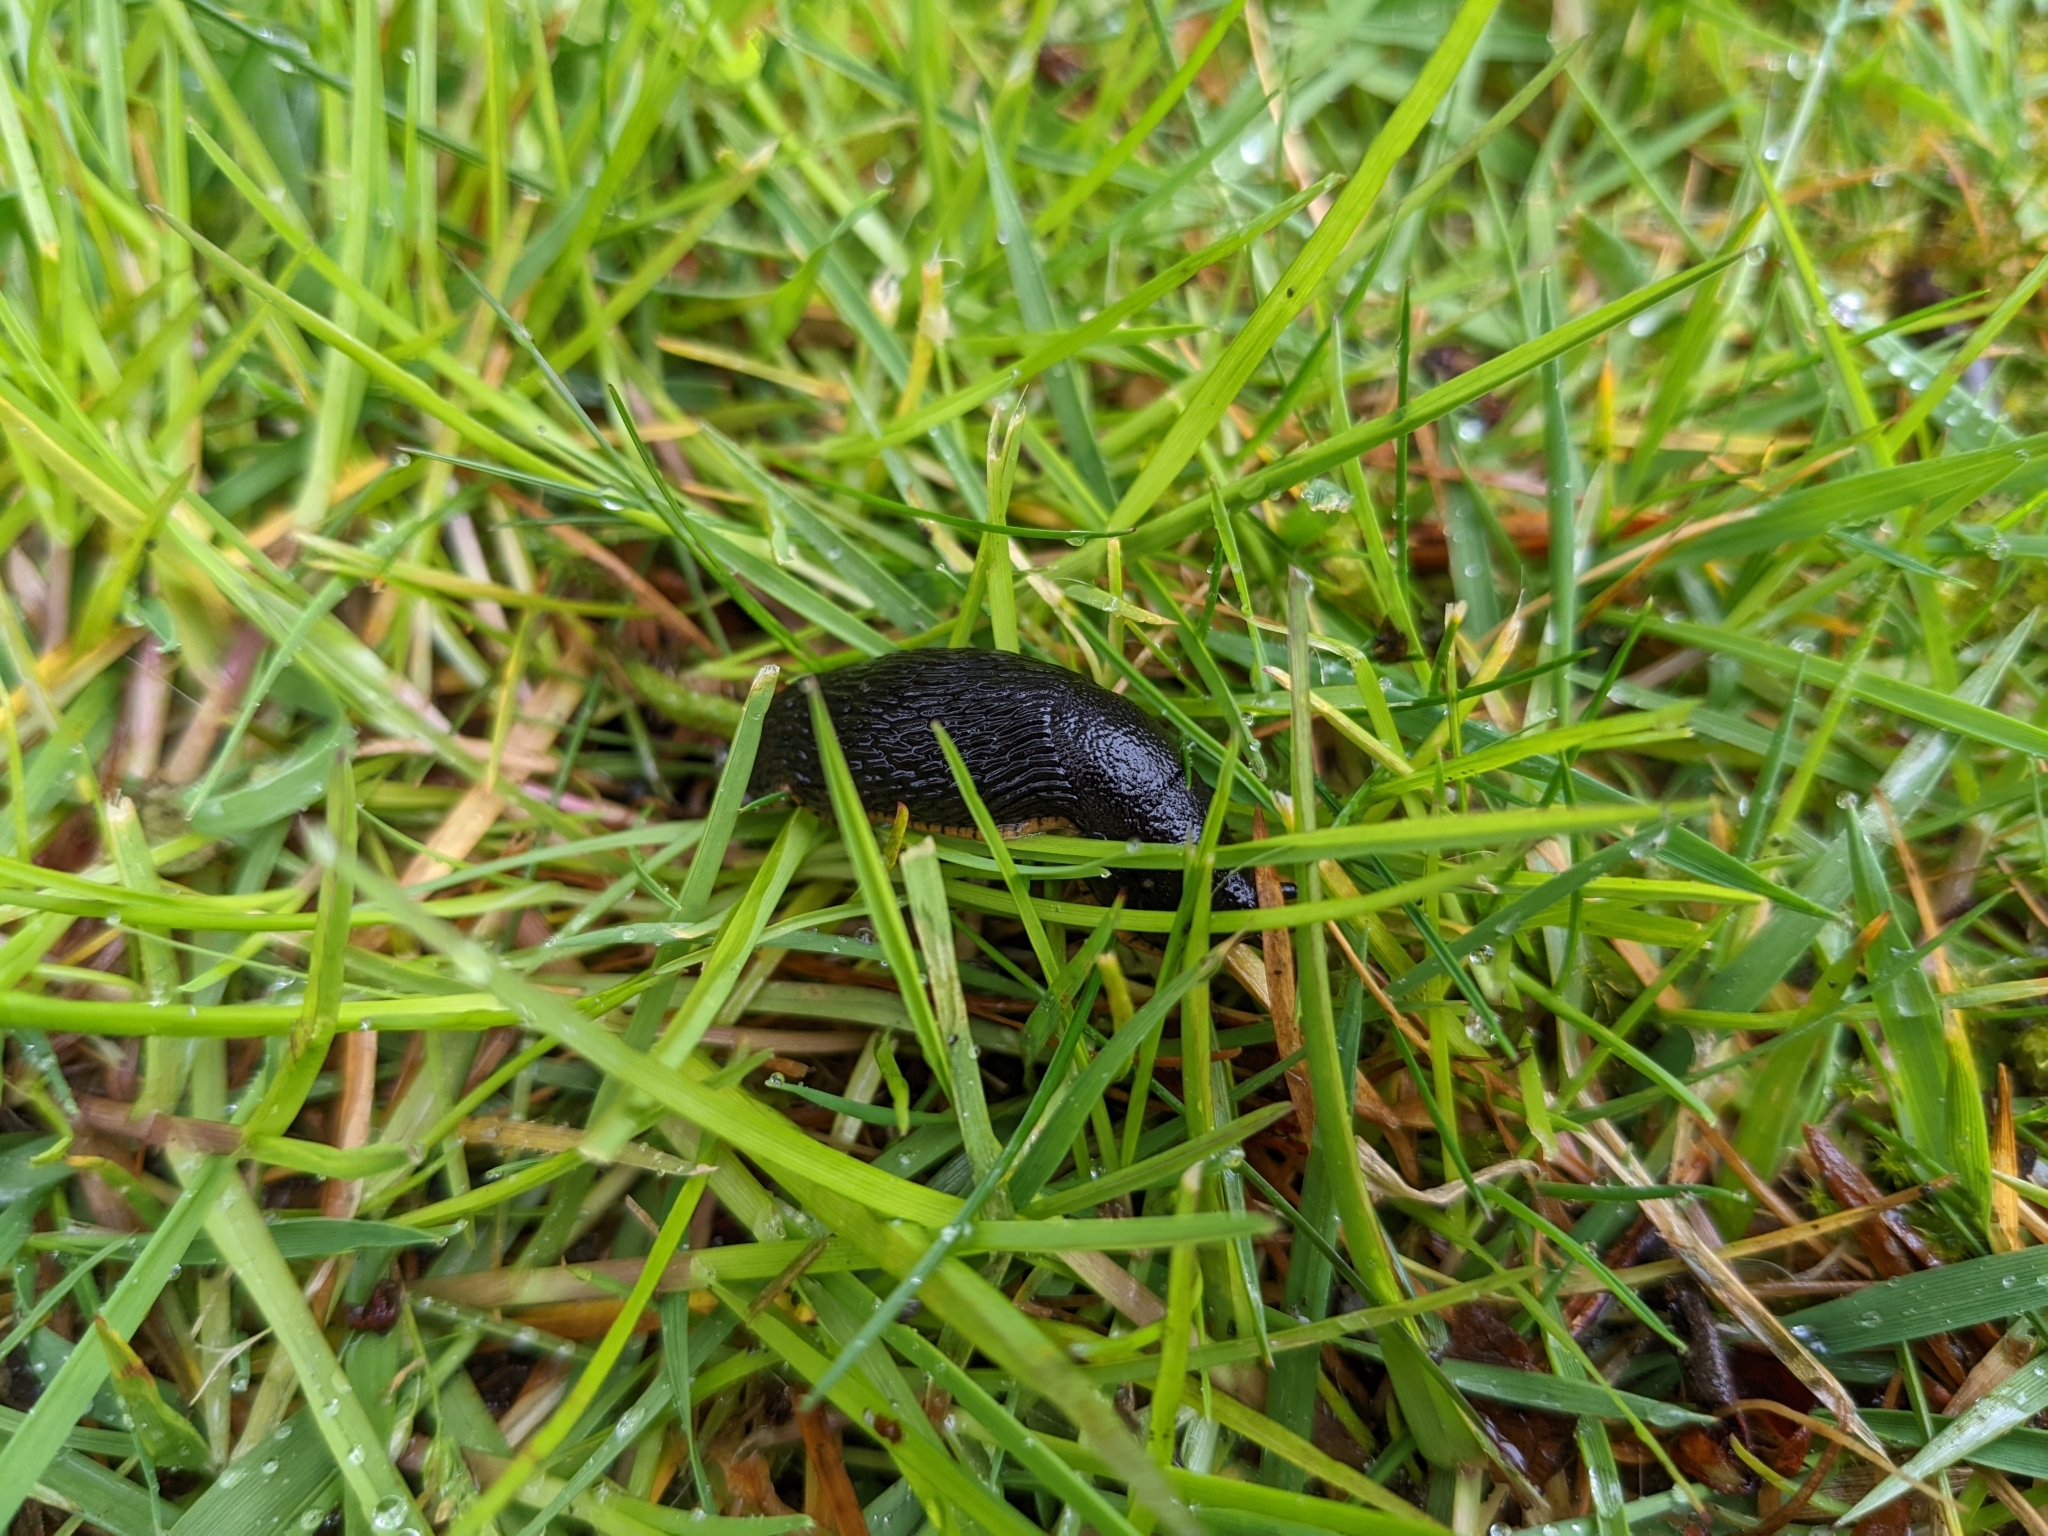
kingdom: Animalia
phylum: Mollusca
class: Gastropoda
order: Stylommatophora
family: Arionidae
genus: Arion
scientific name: Arion
